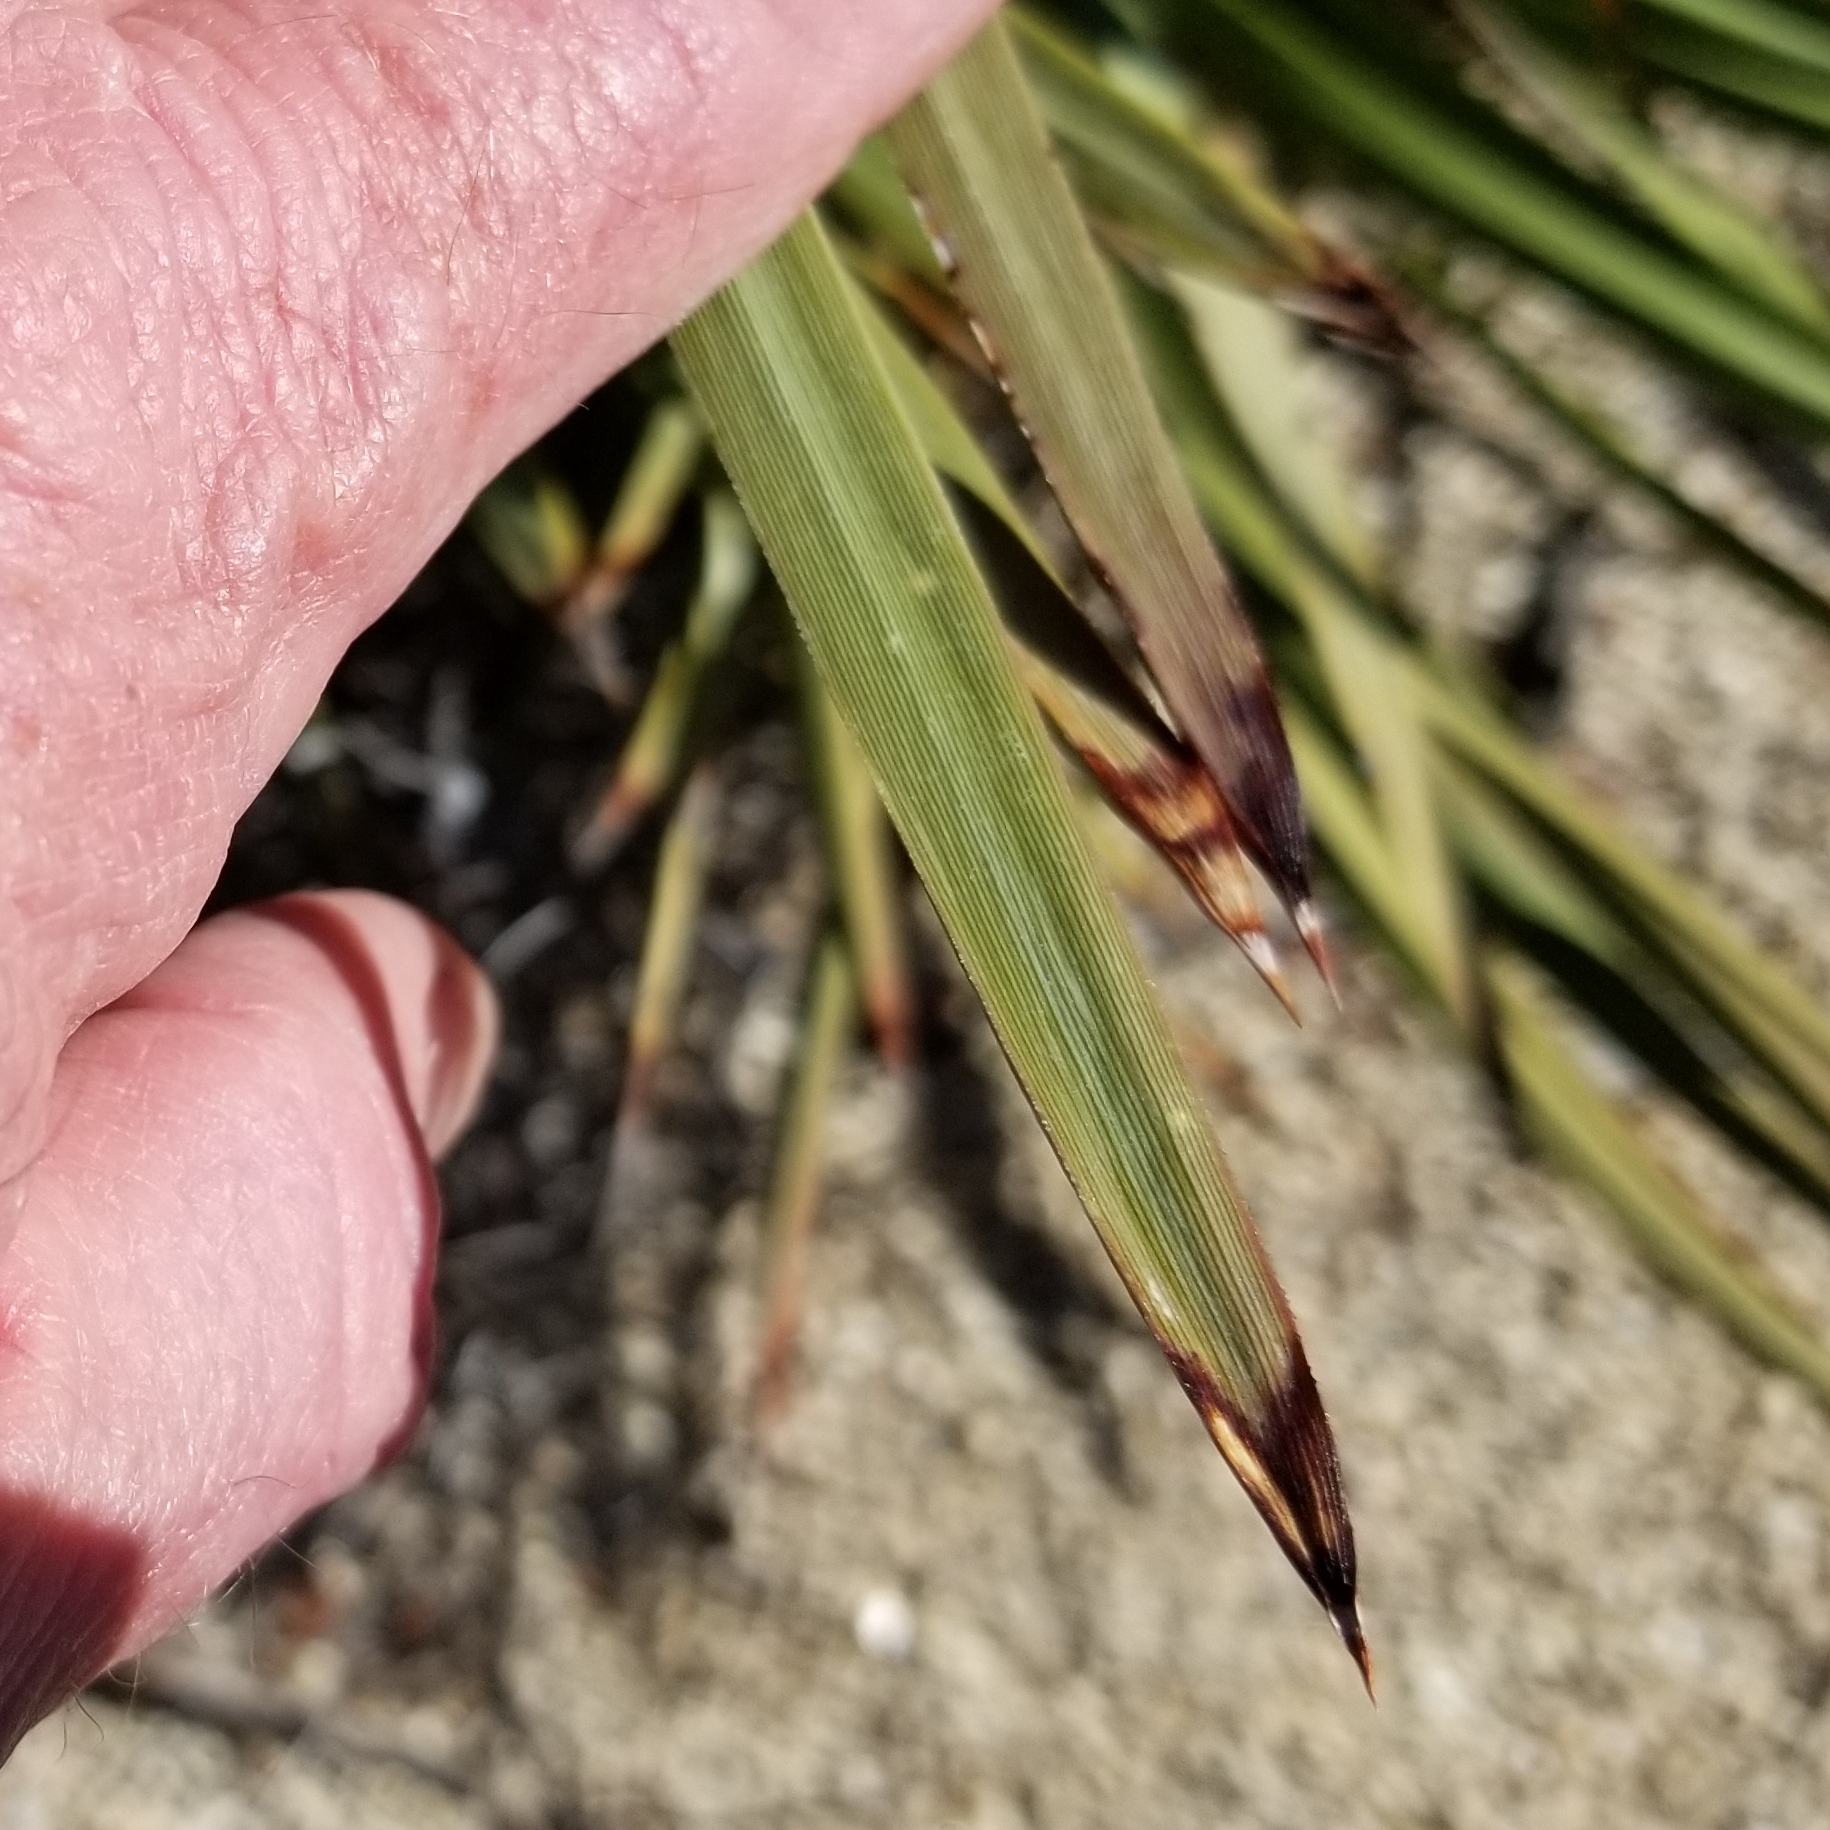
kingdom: Plantae
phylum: Tracheophyta
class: Liliopsida
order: Asparagales
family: Asparagaceae
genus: Hesperoyucca
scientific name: Hesperoyucca whipplei
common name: Our lord's-candle
